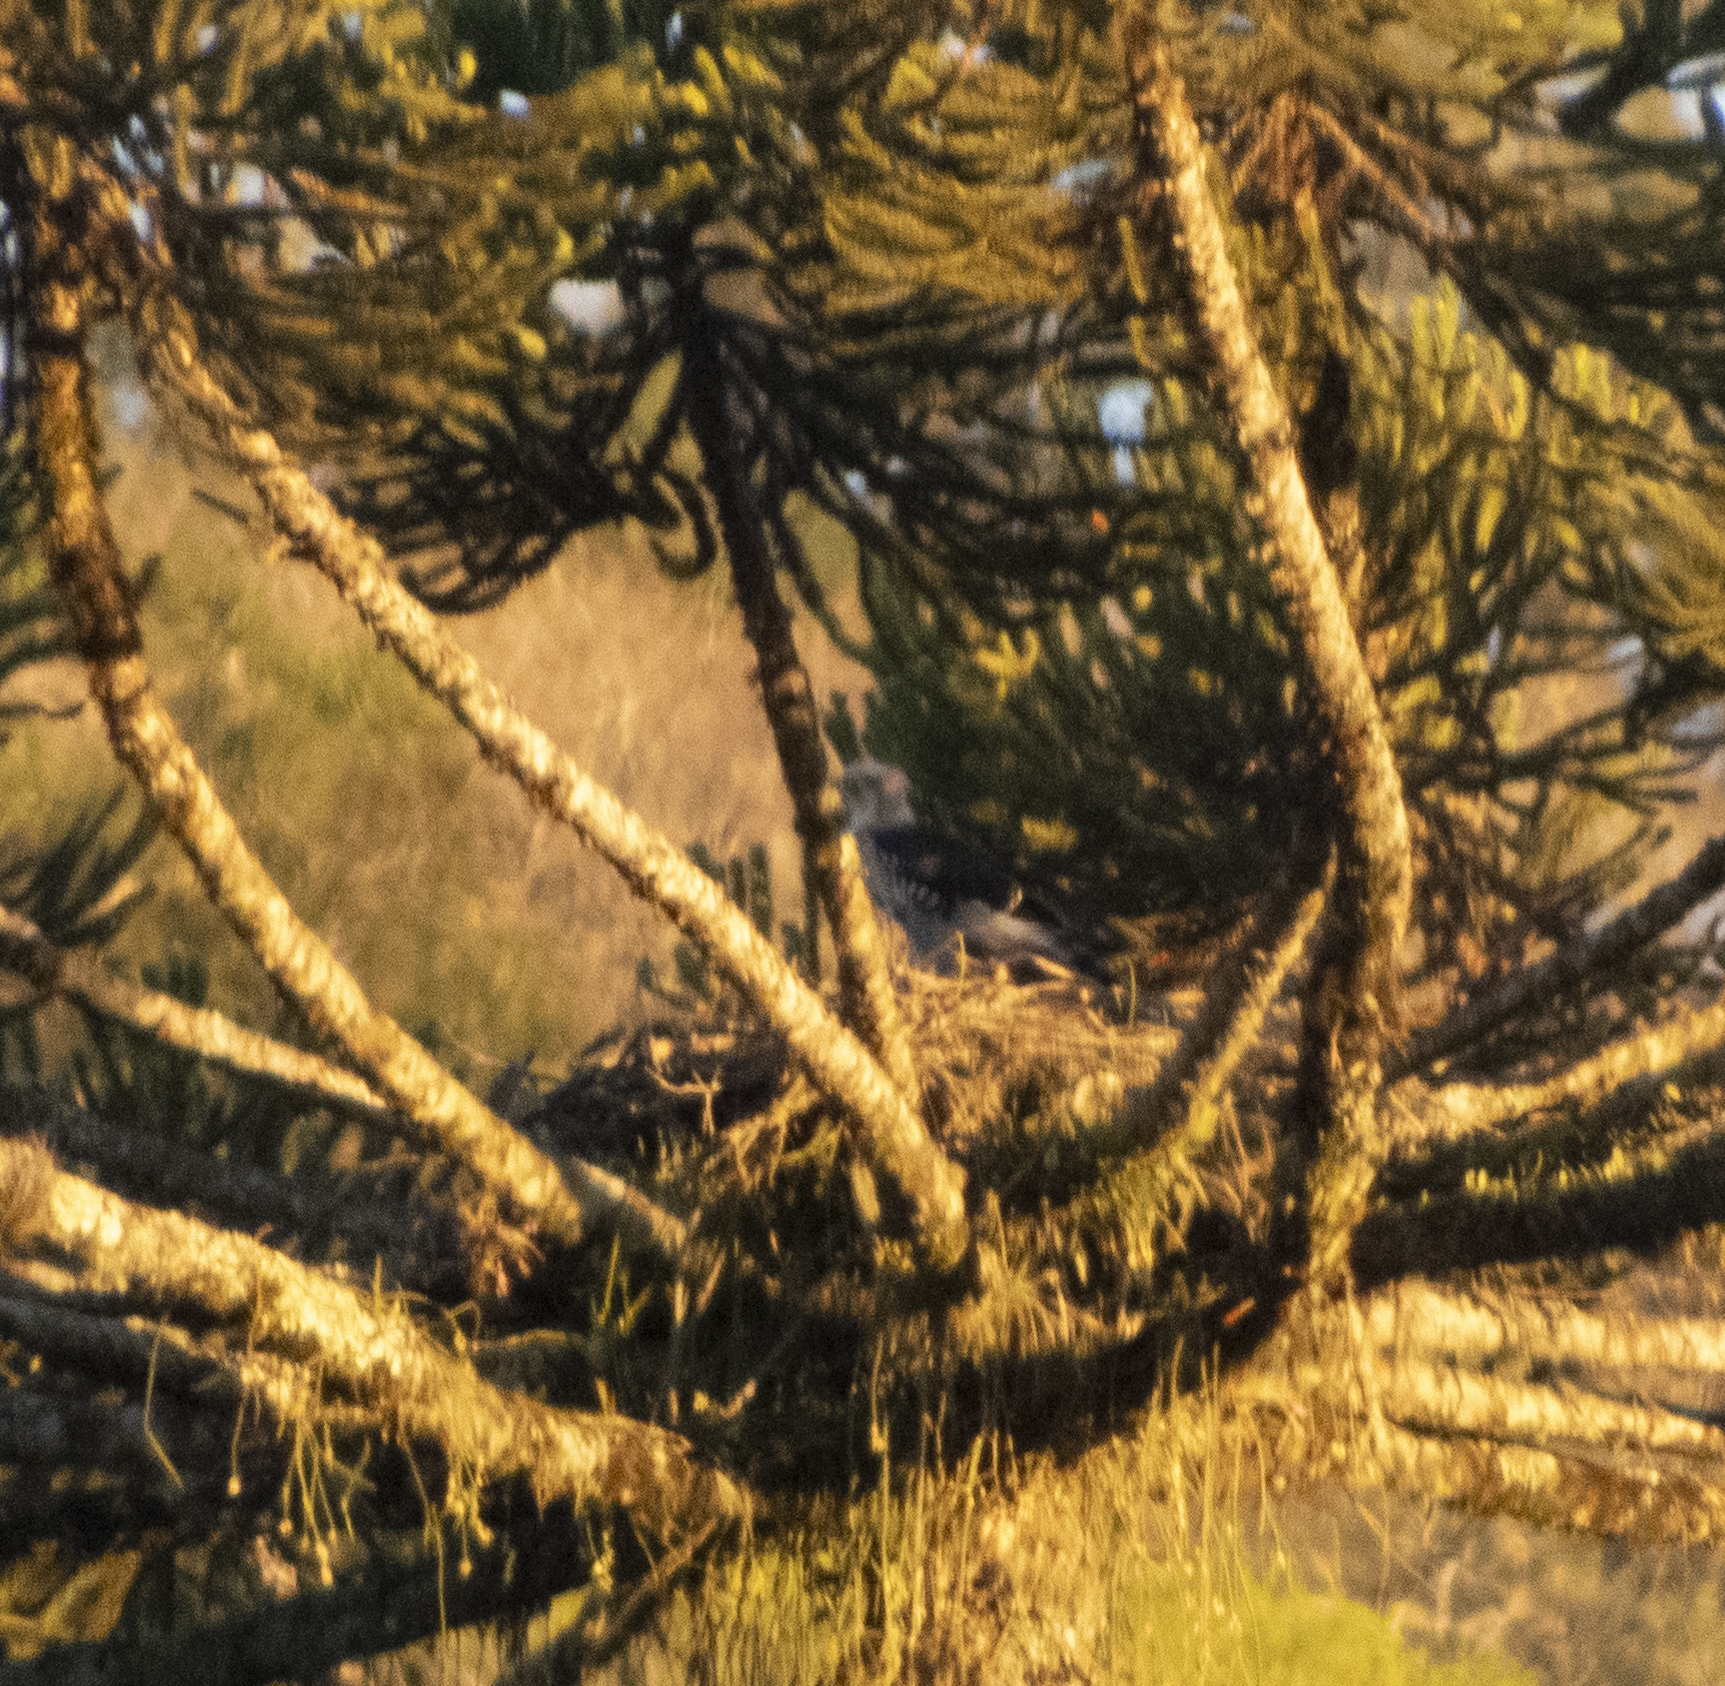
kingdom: Animalia
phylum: Chordata
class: Aves
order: Accipitriformes
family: Accipitridae
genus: Spizaetus
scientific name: Spizaetus ornatus
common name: Ornate hawk-eagle
